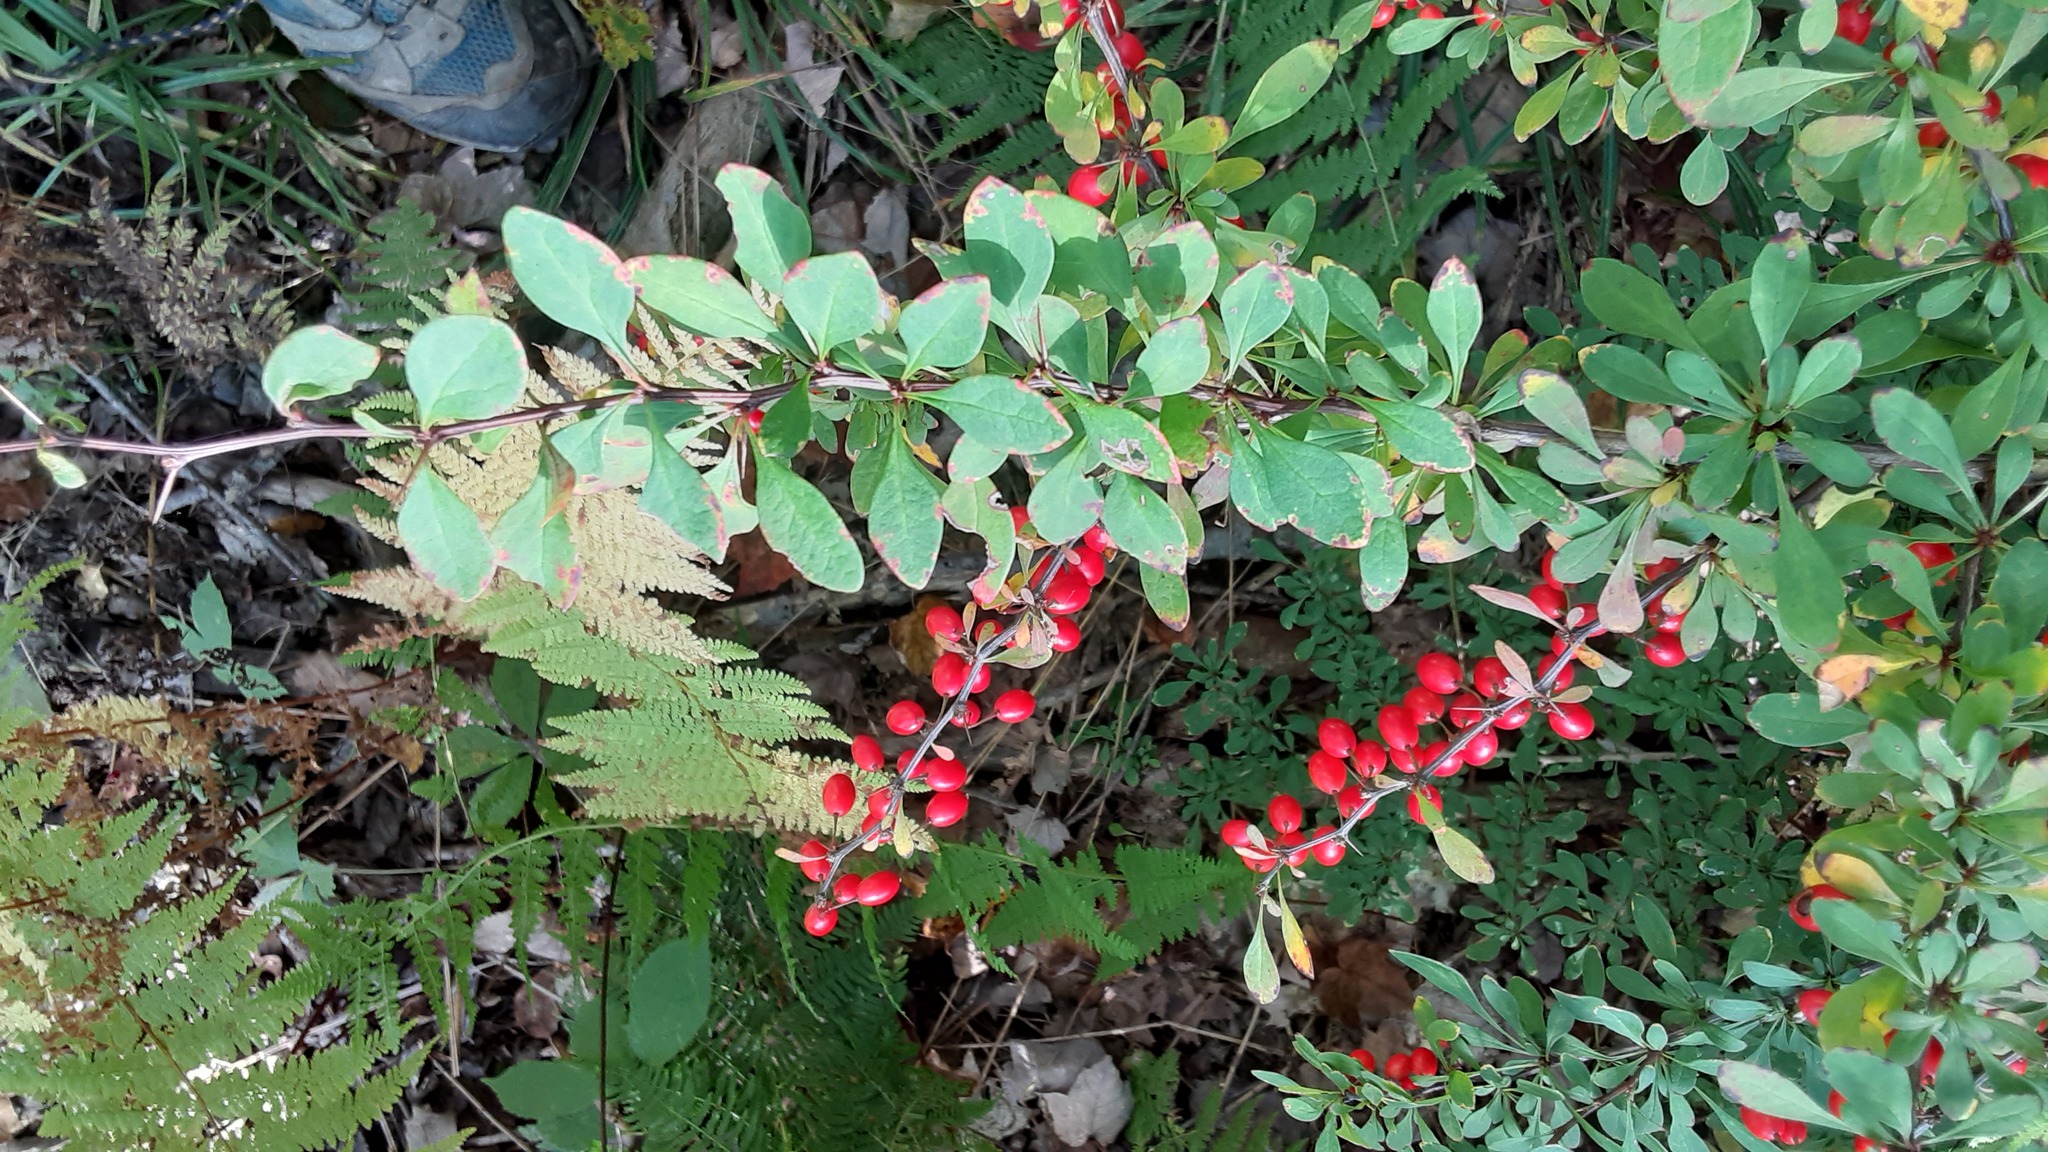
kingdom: Plantae
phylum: Tracheophyta
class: Magnoliopsida
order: Ranunculales
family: Berberidaceae
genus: Berberis
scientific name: Berberis thunbergii
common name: Japanese barberry
